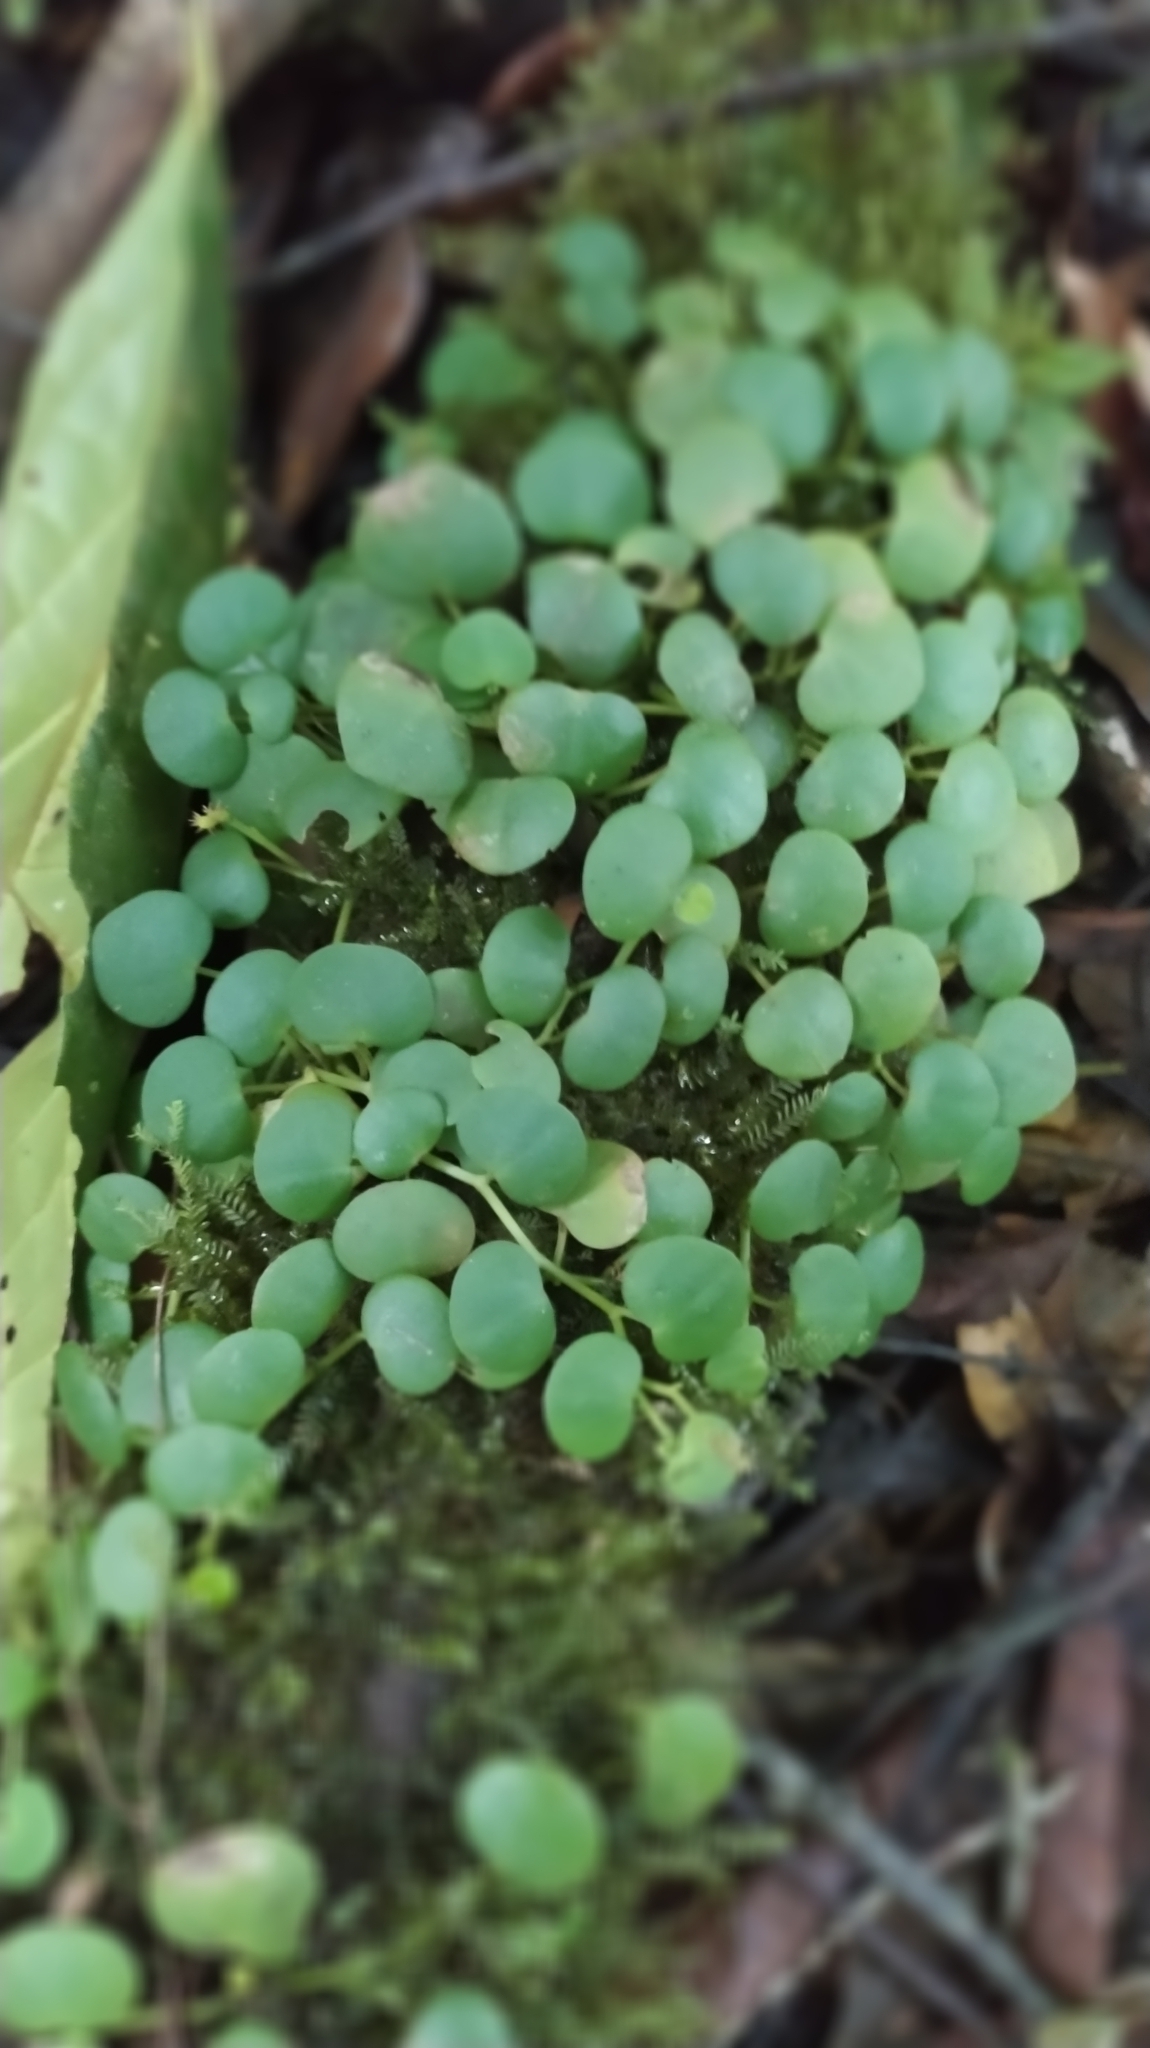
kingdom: Plantae
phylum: Tracheophyta
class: Magnoliopsida
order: Piperales
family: Piperaceae
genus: Peperomia
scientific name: Peperomia serpens
